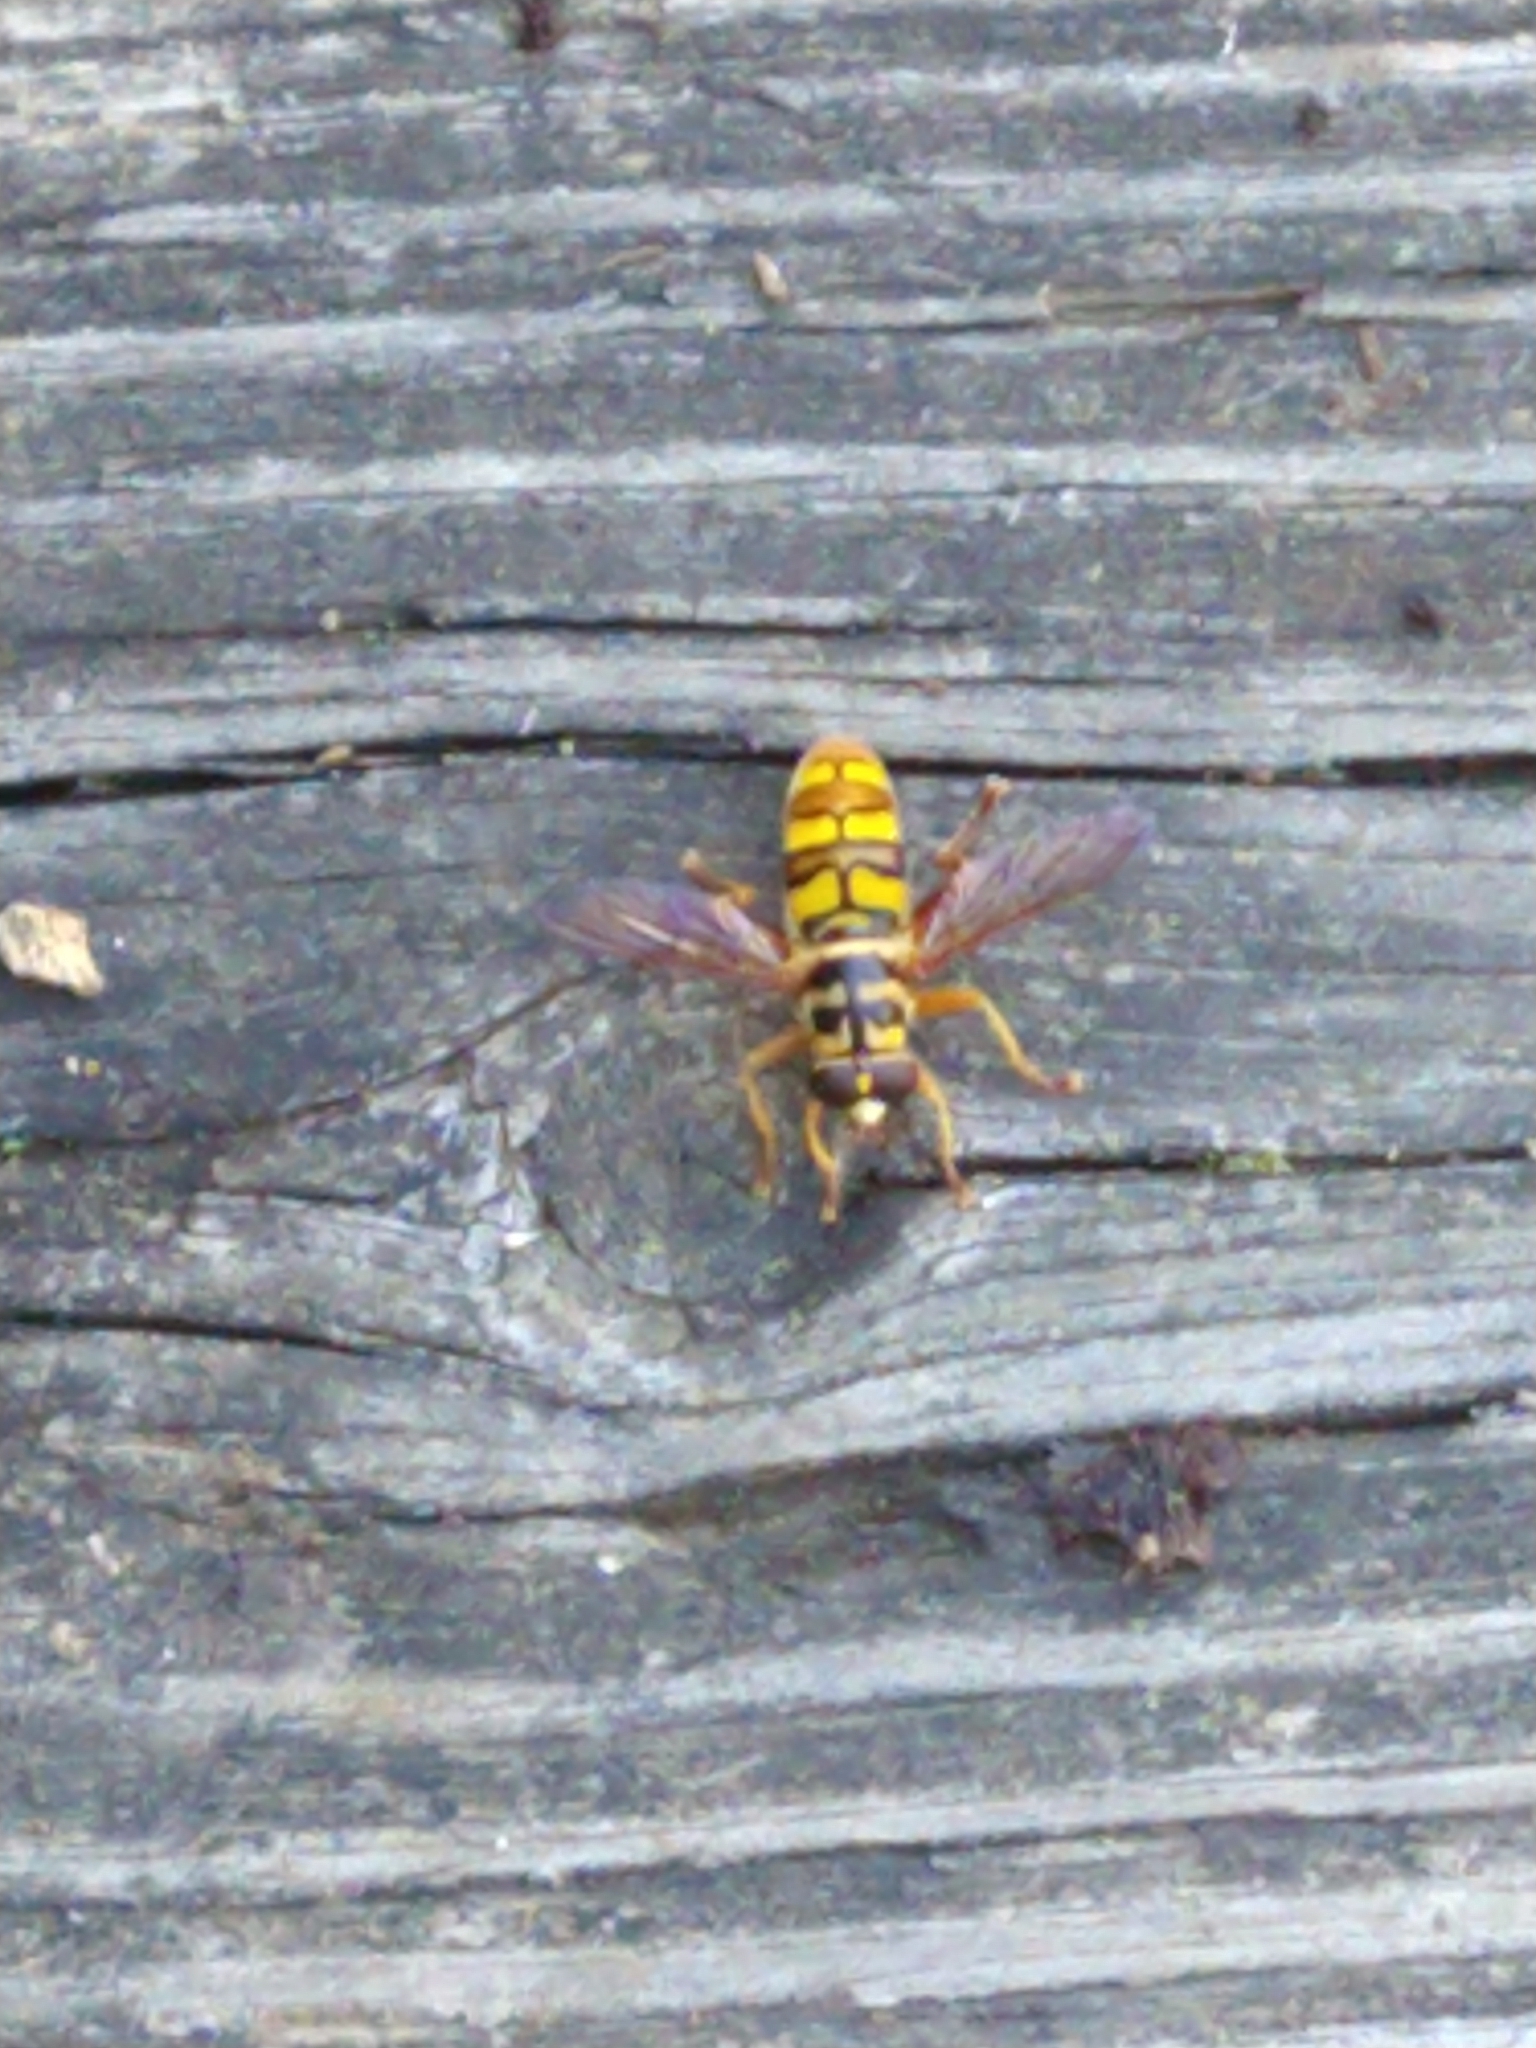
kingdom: Animalia
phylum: Arthropoda
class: Insecta
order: Diptera
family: Syrphidae
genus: Milesia
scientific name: Milesia virginiensis
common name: Virginia giant
